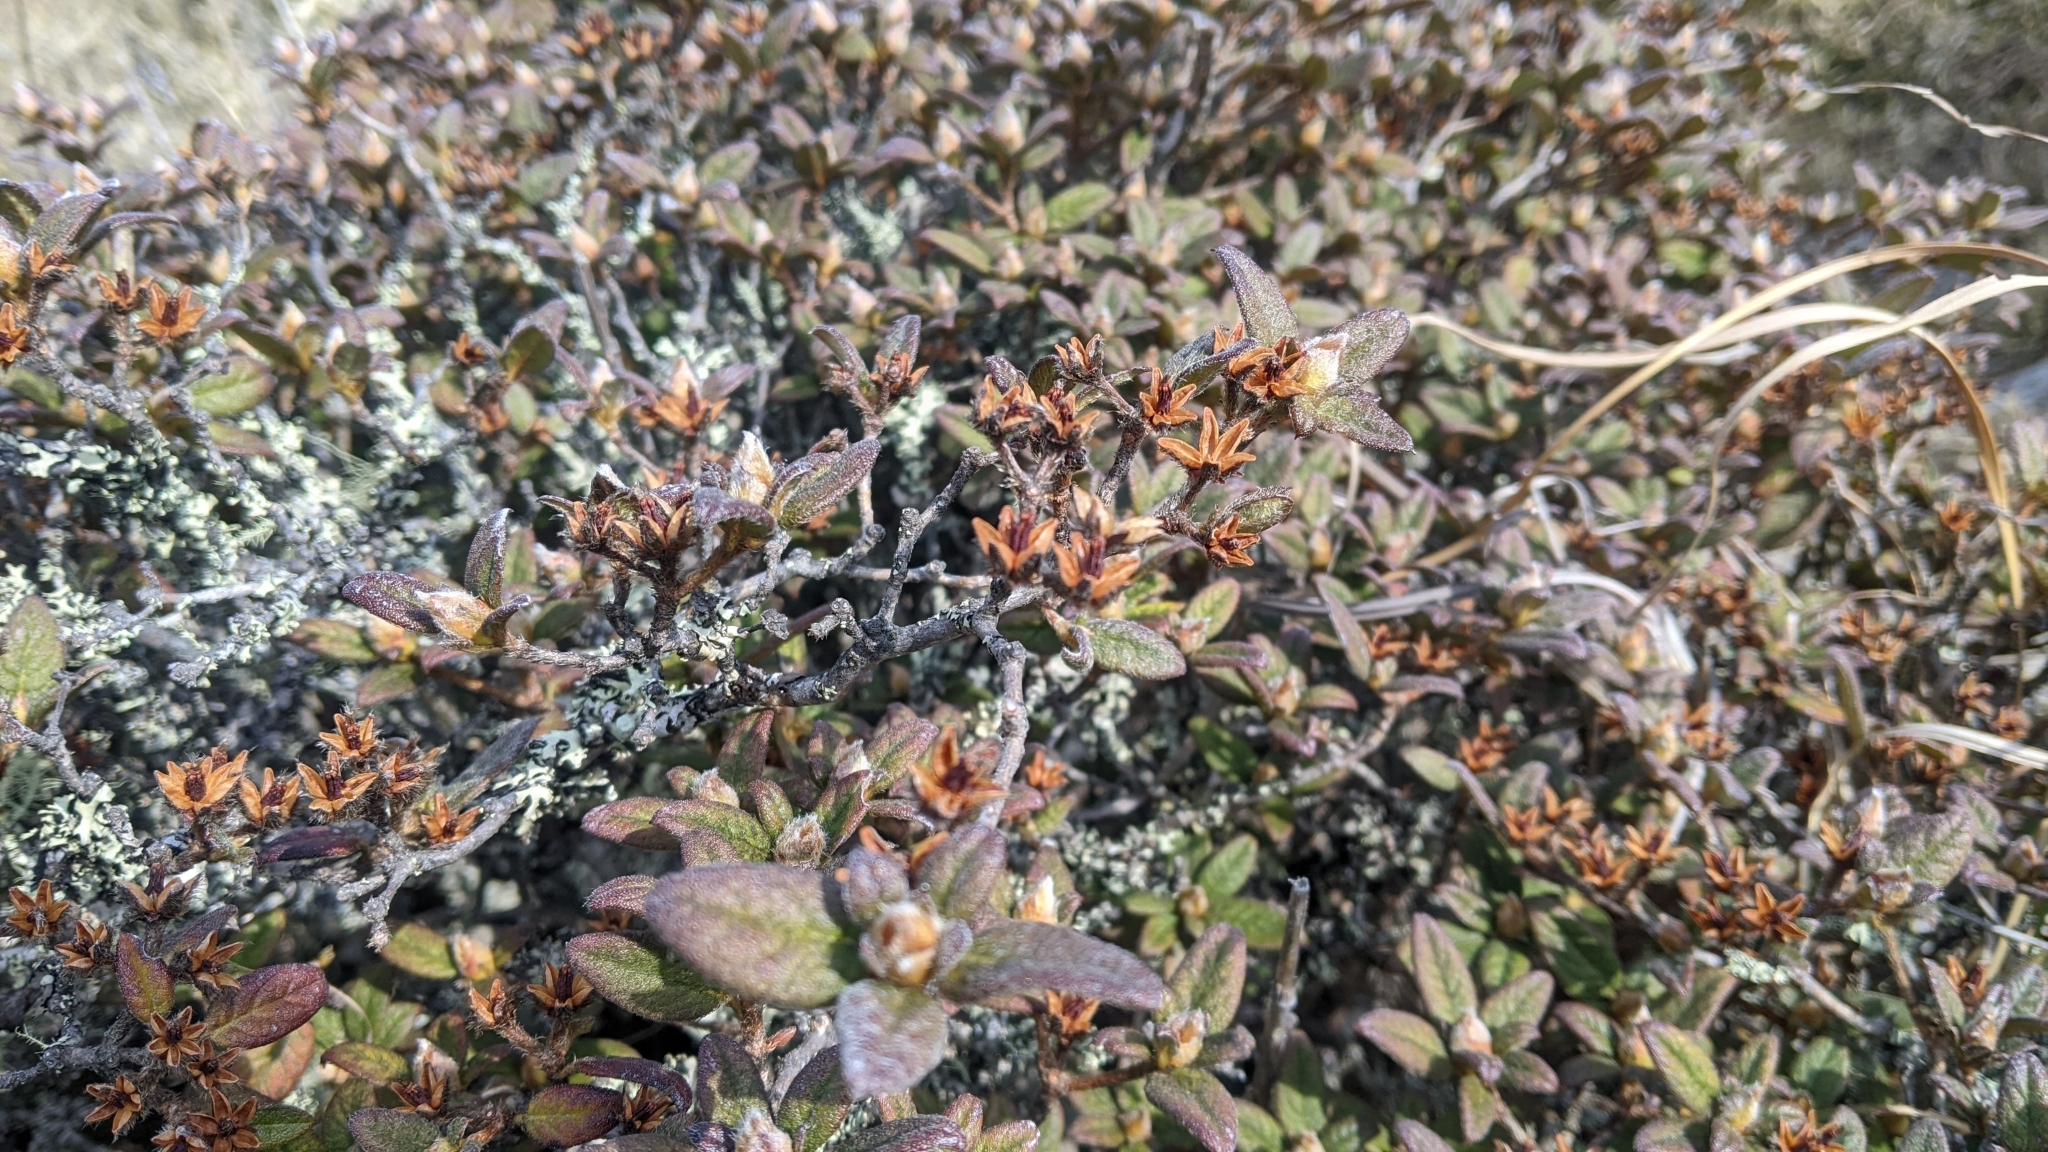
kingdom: Plantae
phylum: Tracheophyta
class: Magnoliopsida
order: Ericales
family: Ericaceae
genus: Rhododendron
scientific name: Rhododendron taiwanalpinum
